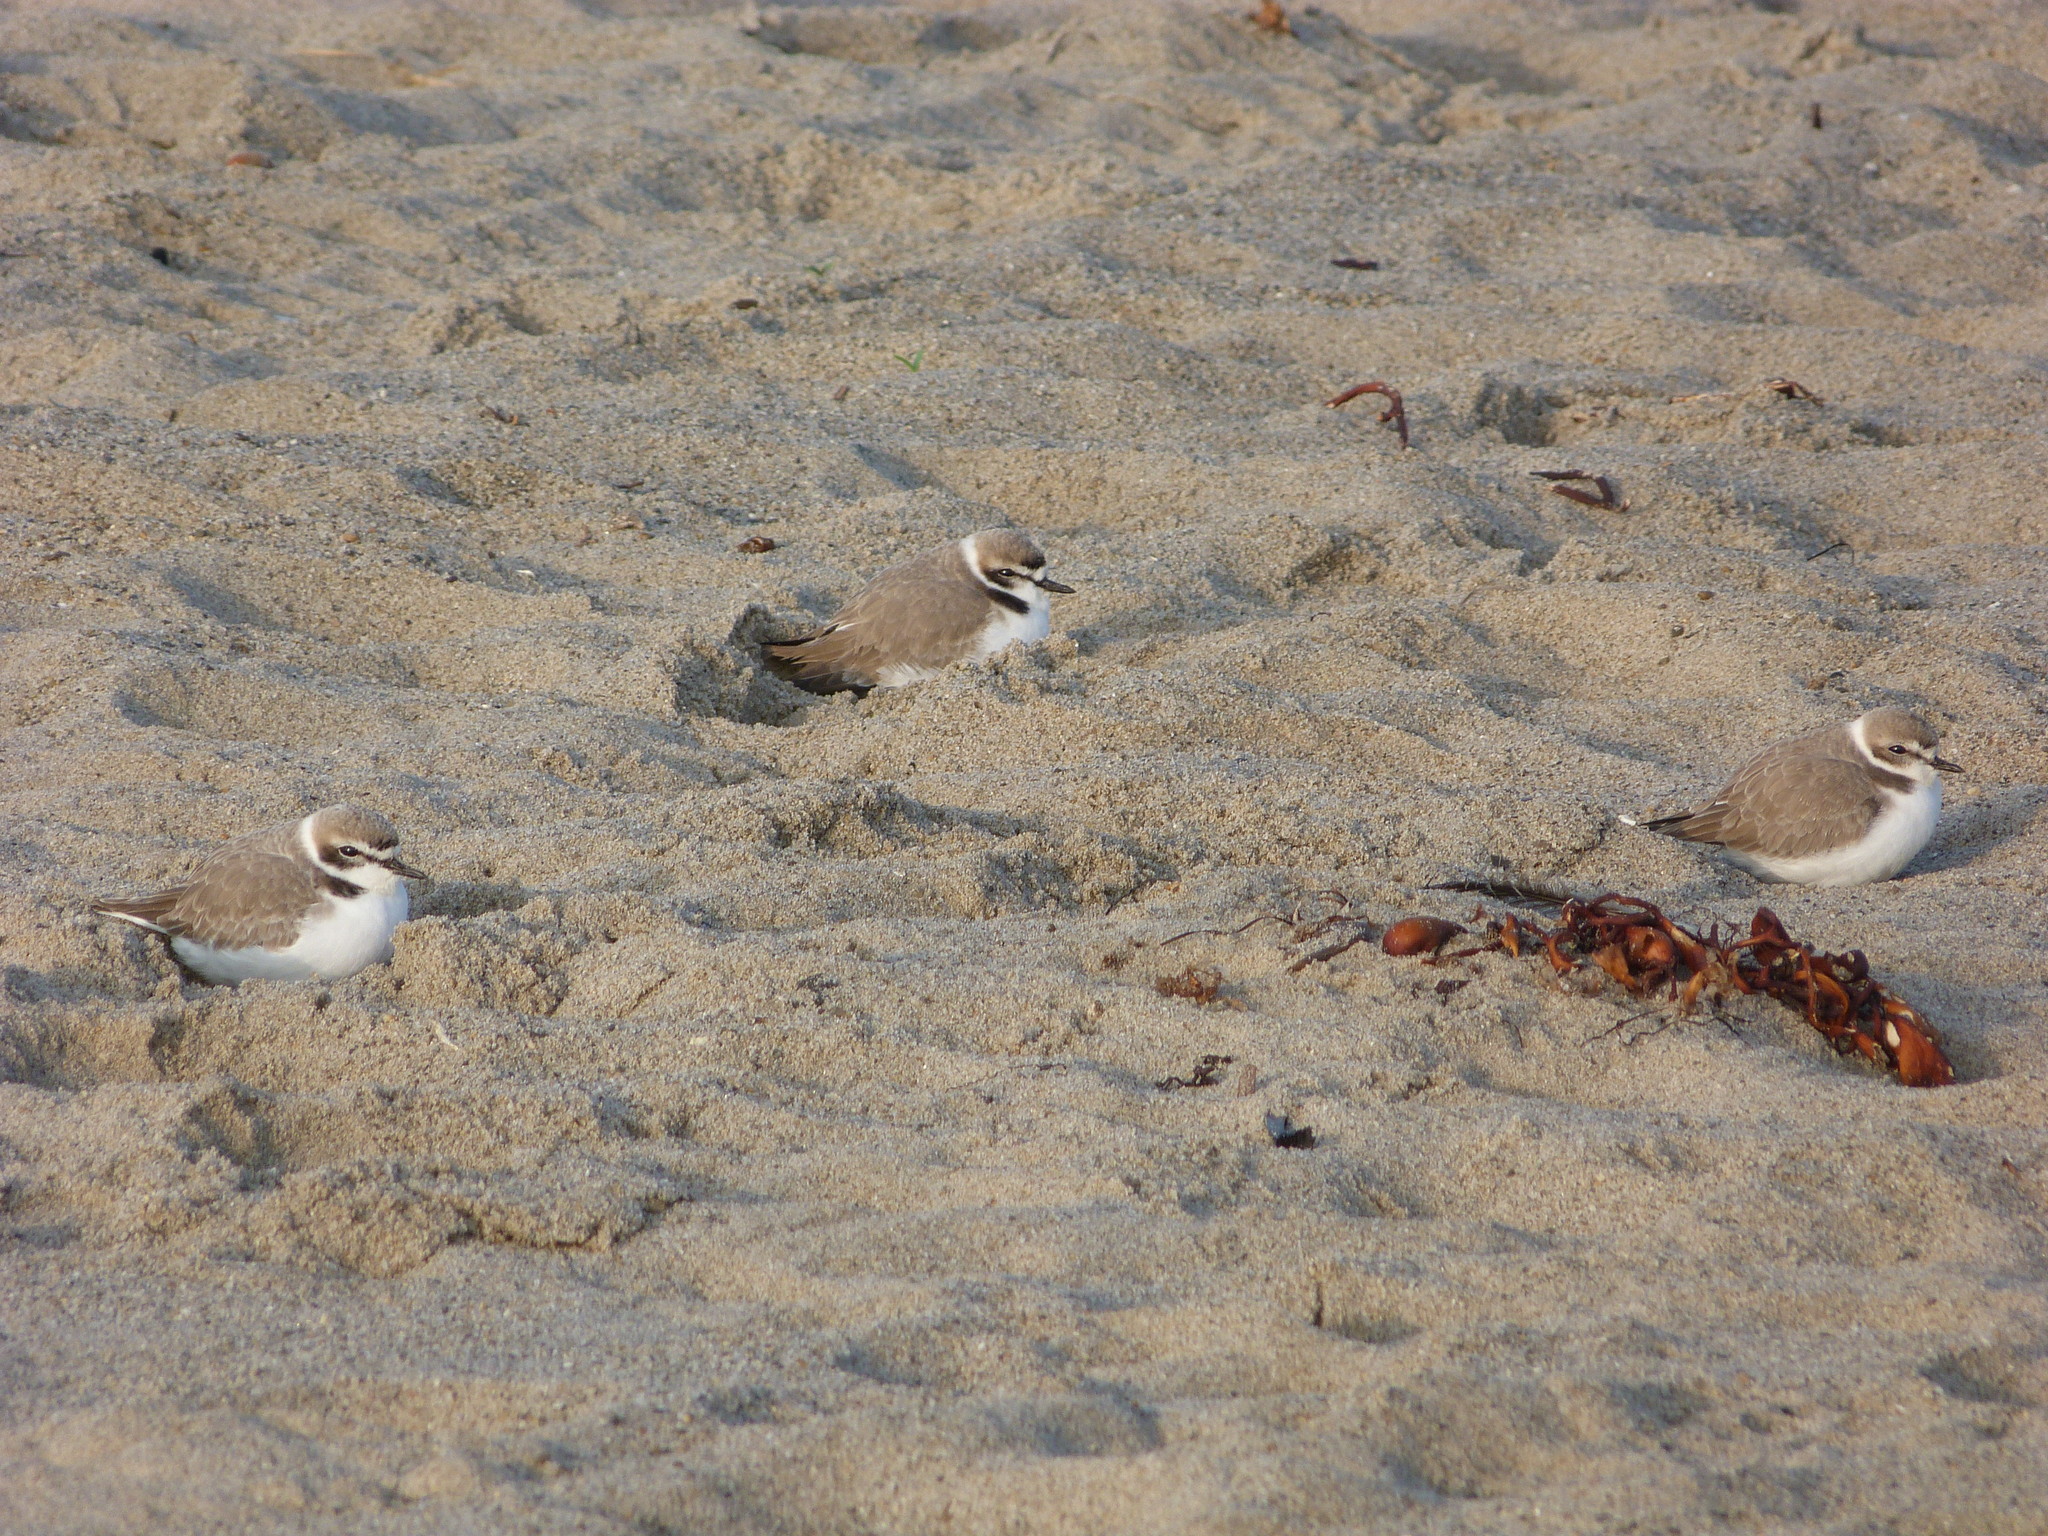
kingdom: Animalia
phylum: Chordata
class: Aves
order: Charadriiformes
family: Charadriidae
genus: Anarhynchus
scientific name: Anarhynchus
